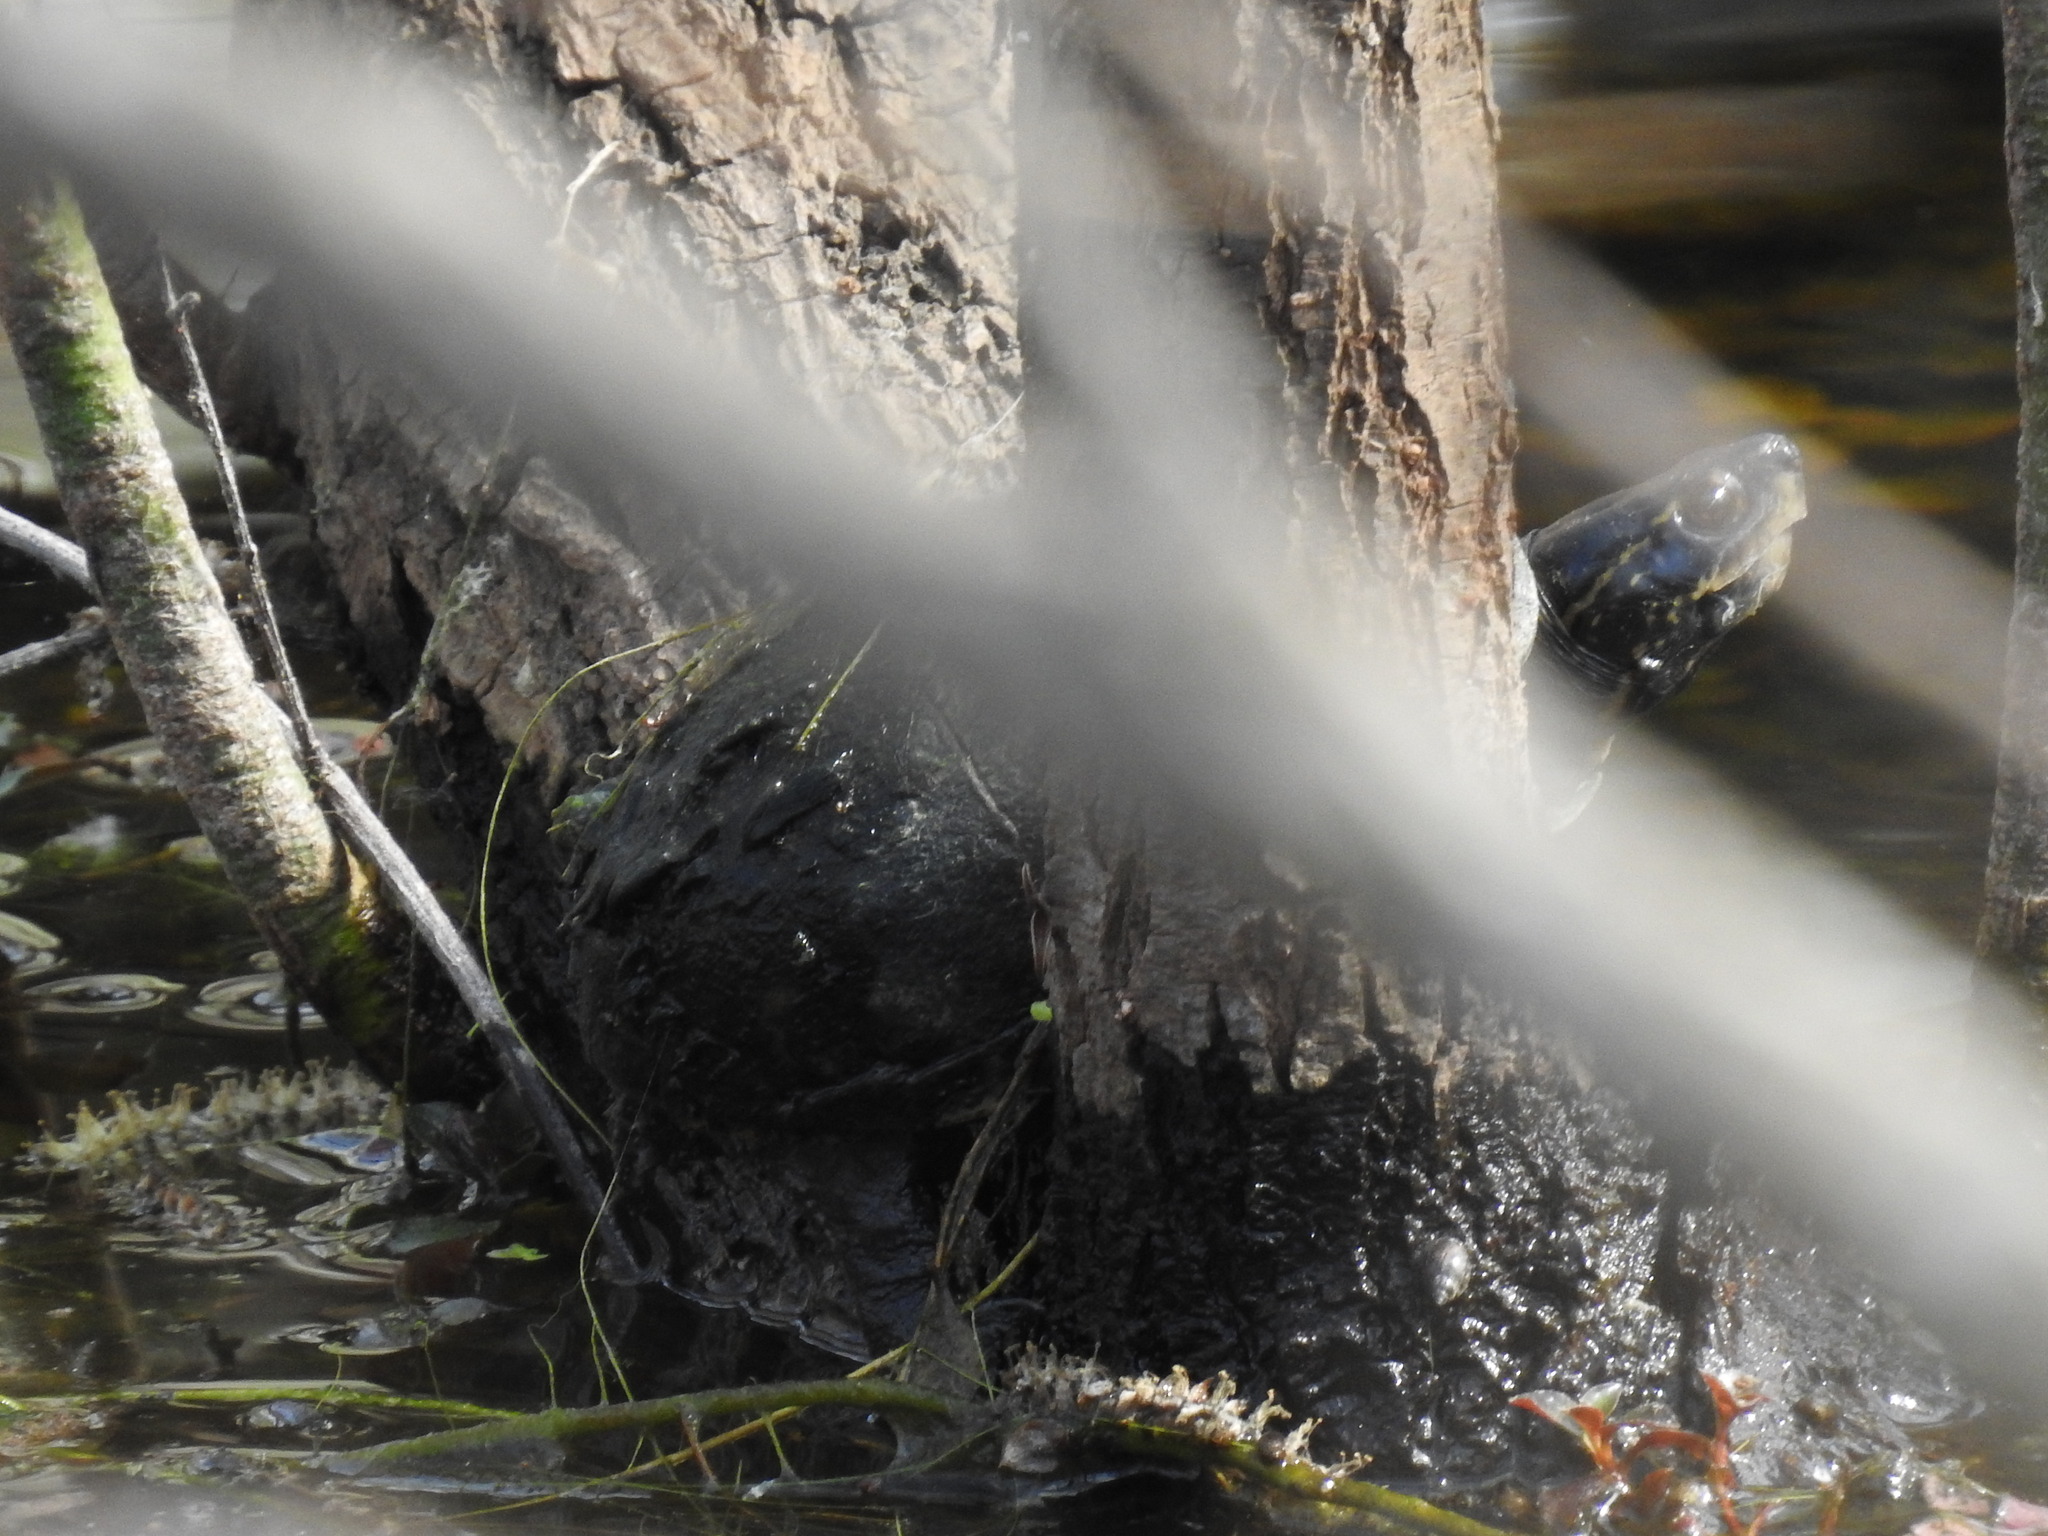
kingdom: Animalia
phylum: Chordata
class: Testudines
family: Kinosternidae
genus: Kinosternon
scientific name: Kinosternon baurii
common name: Striped mud turtle
